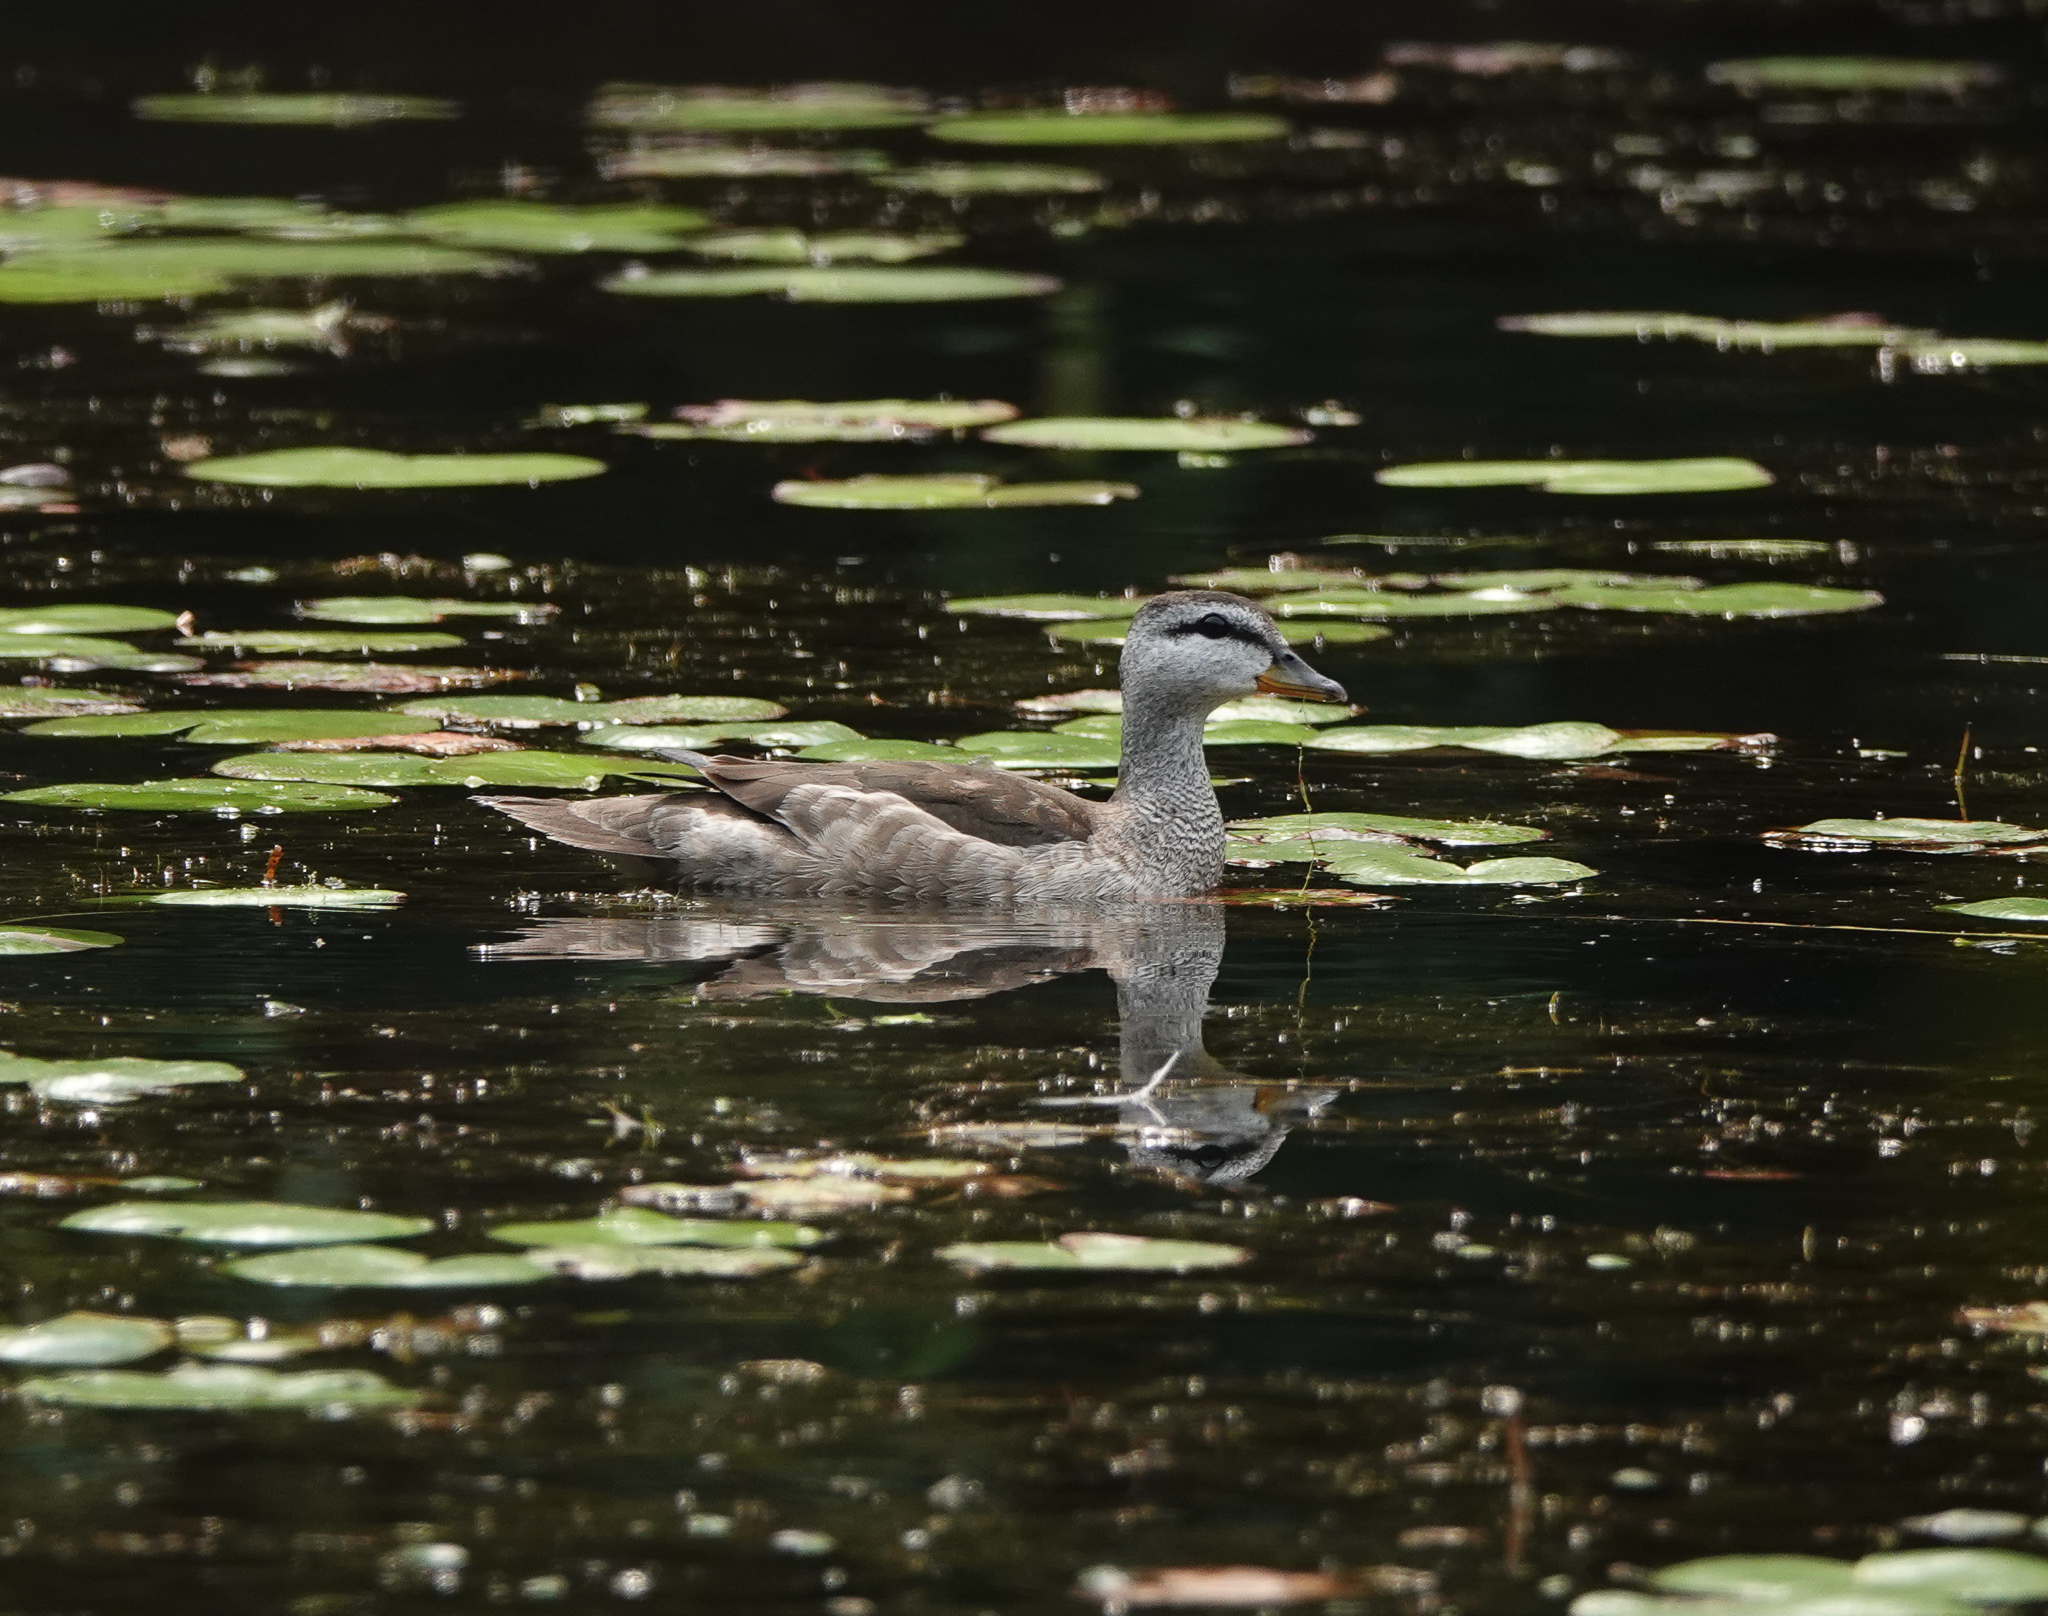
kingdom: Animalia
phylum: Chordata
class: Aves
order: Anseriformes
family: Anatidae
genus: Nettapus
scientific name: Nettapus coromandelianus
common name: Cotton pygmy-goose
